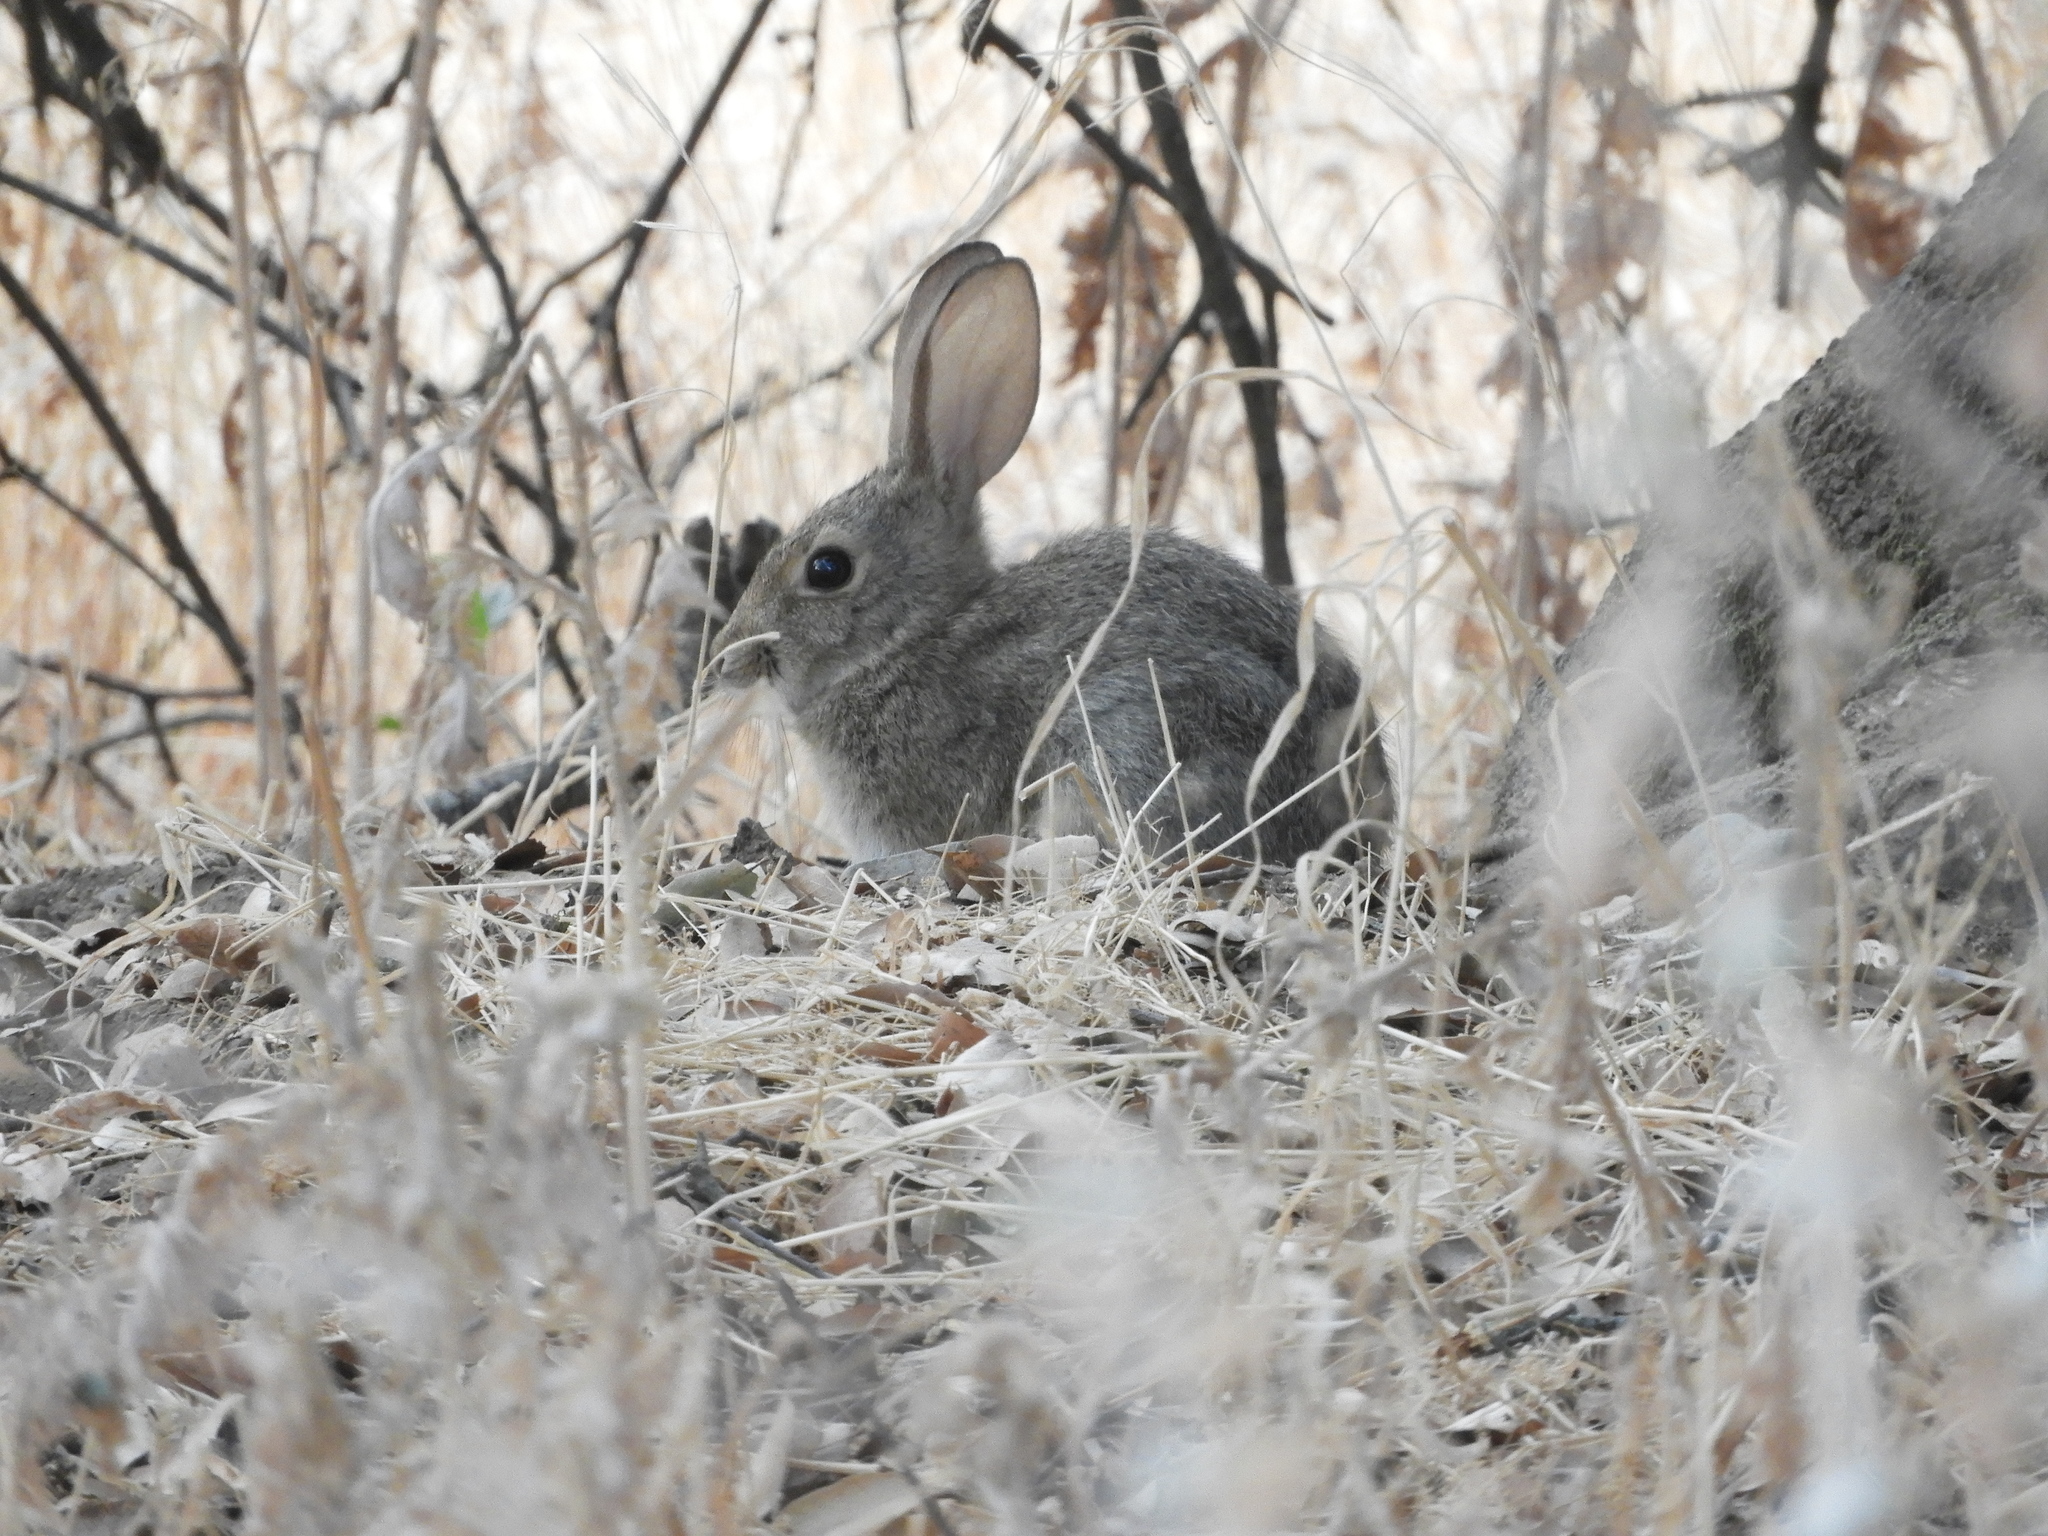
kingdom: Animalia
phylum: Chordata
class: Mammalia
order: Lagomorpha
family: Leporidae
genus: Sylvilagus
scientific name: Sylvilagus audubonii
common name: Desert cottontail
